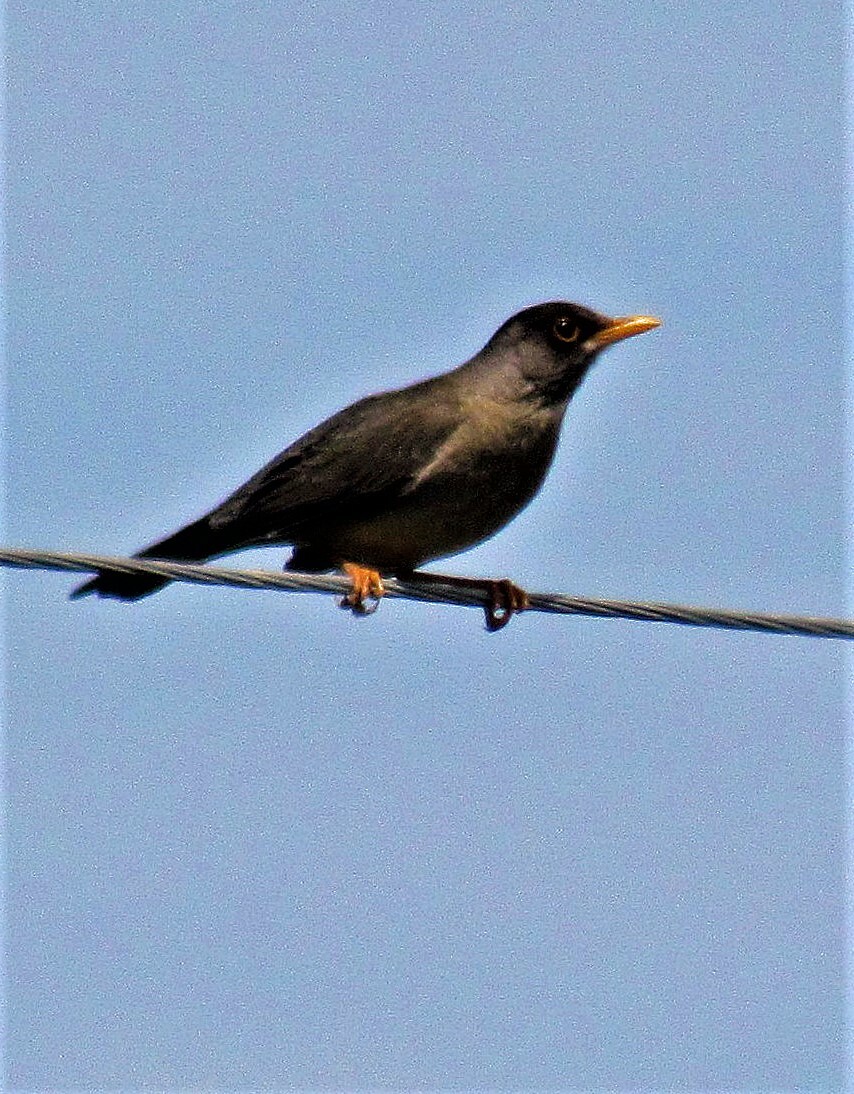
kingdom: Animalia
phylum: Chordata
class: Aves
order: Passeriformes
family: Turdidae
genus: Turdus
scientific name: Turdus falcklandii
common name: Austral thrush
